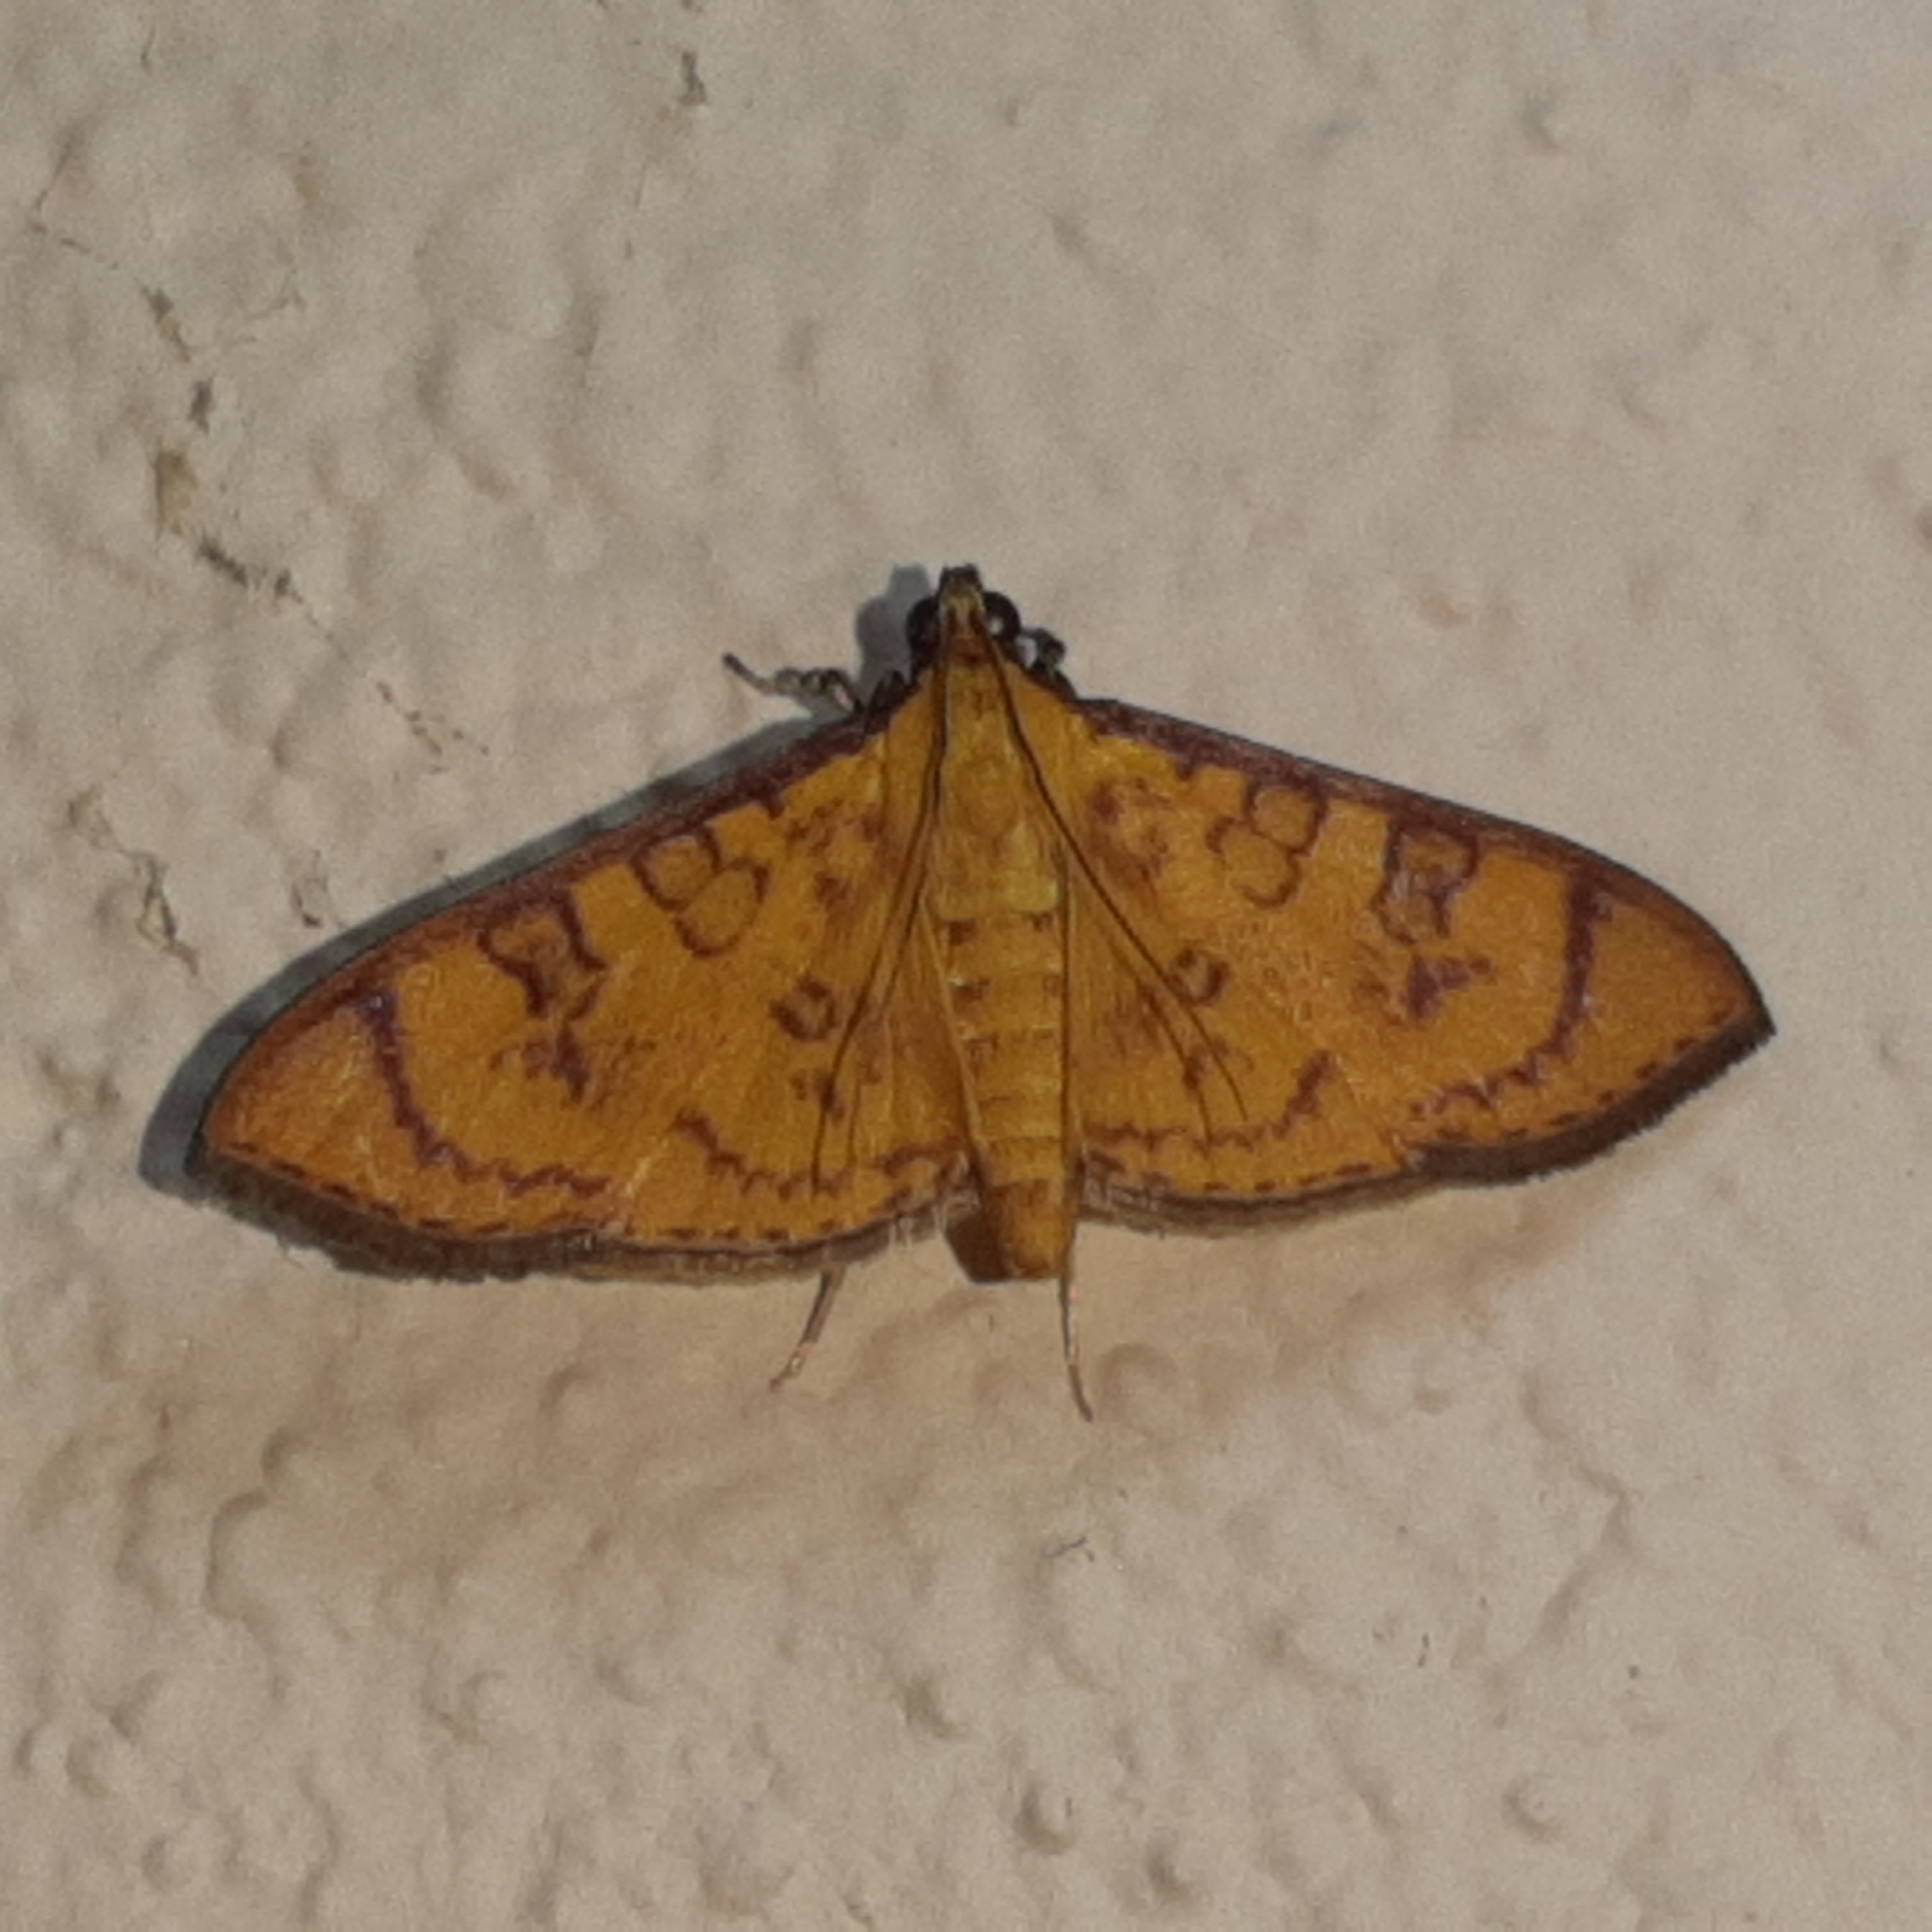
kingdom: Animalia
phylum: Arthropoda
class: Insecta
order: Lepidoptera
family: Crambidae
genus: Trithyris
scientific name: Trithyris
